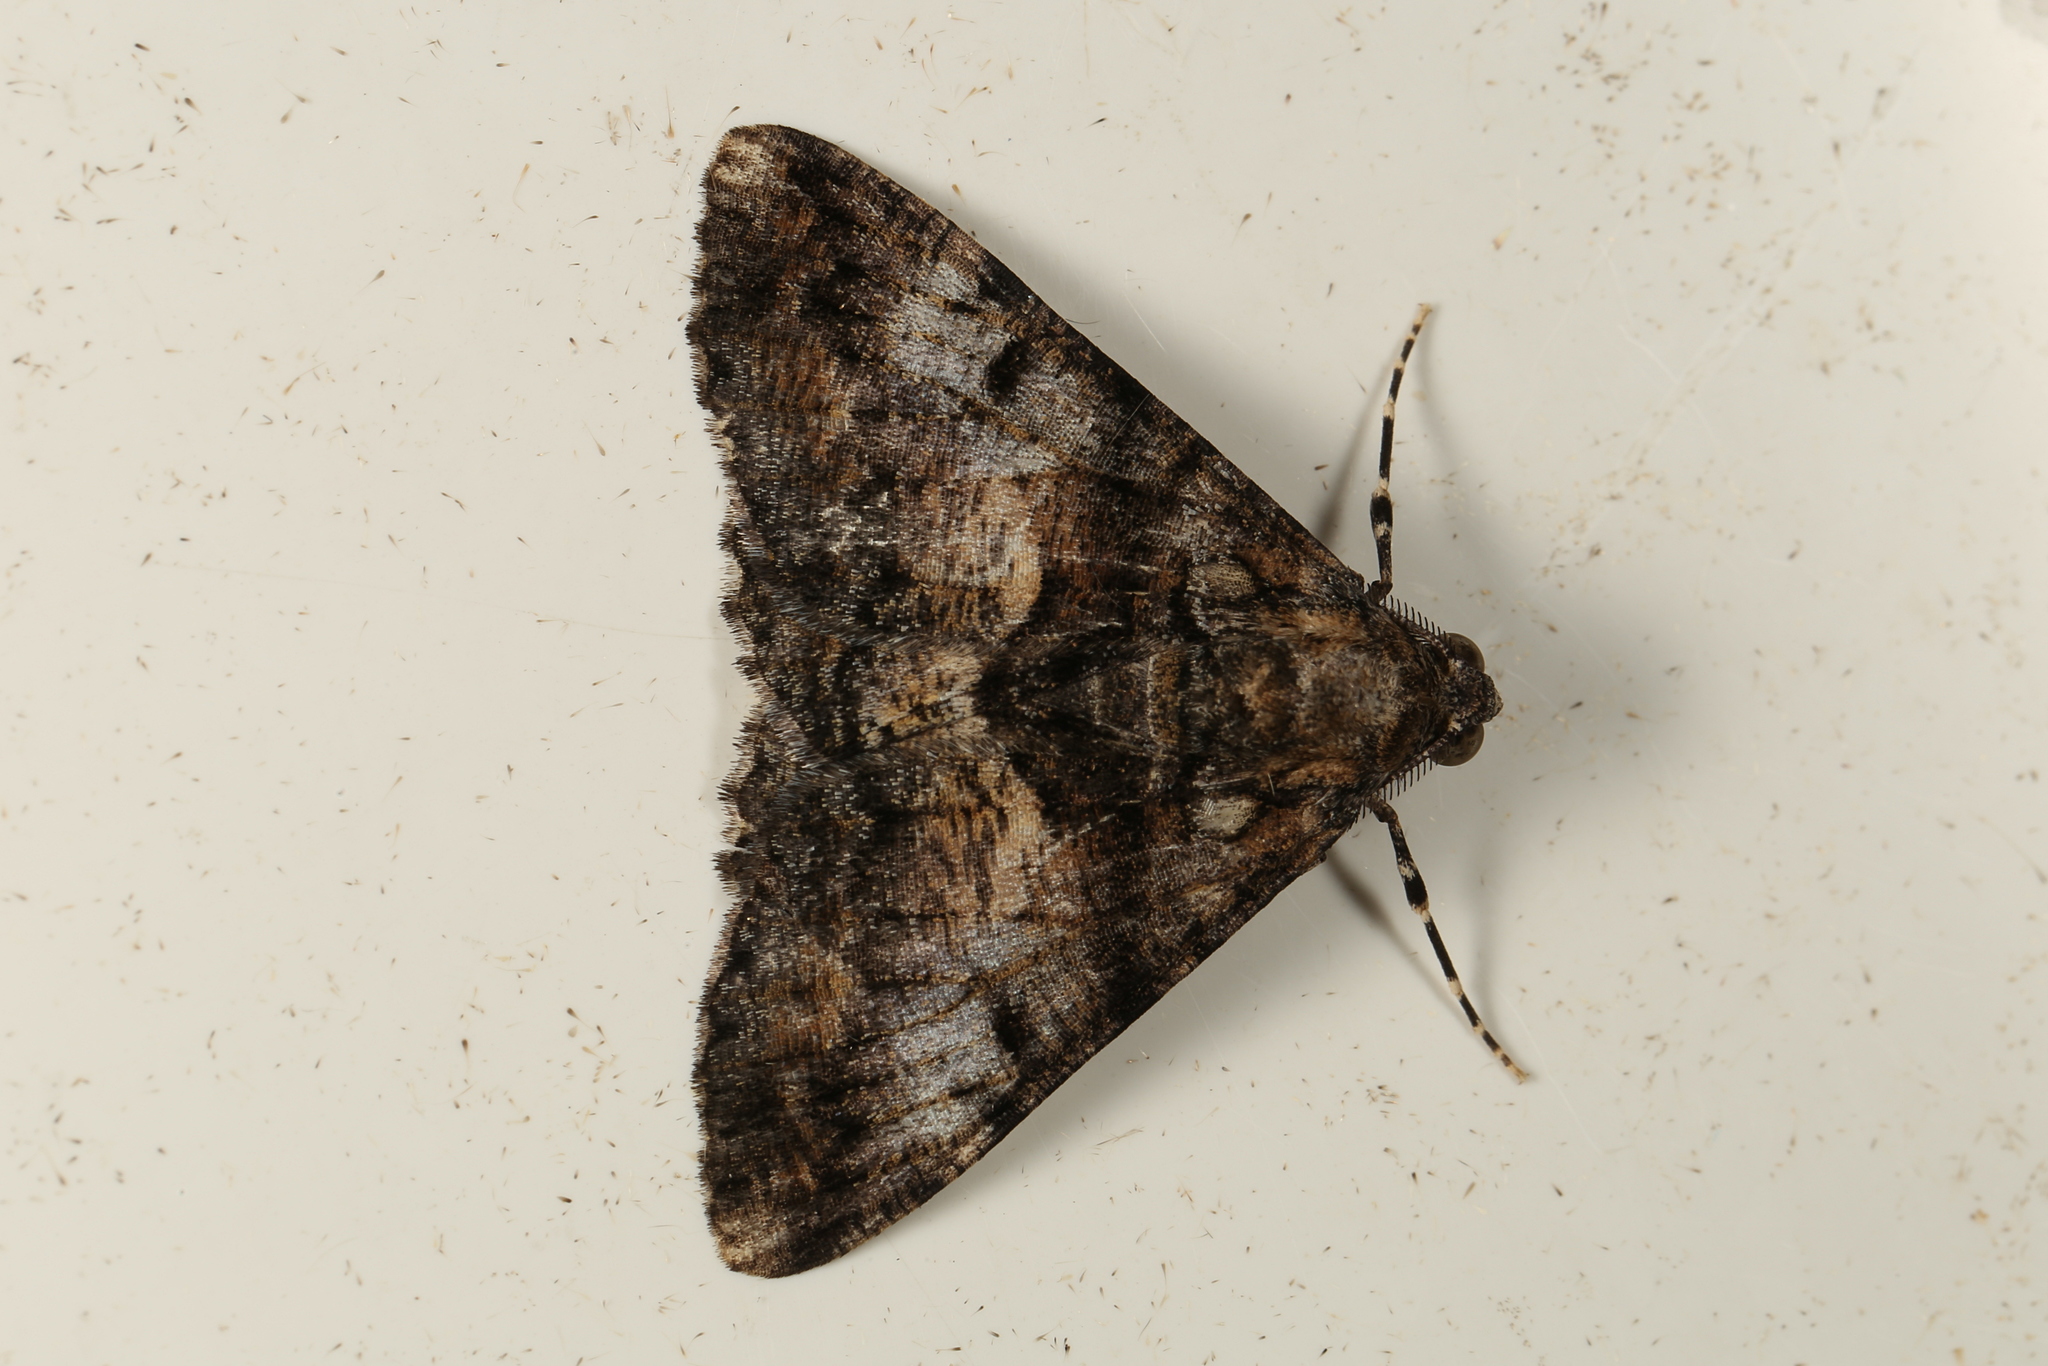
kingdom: Animalia
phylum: Arthropoda
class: Insecta
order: Lepidoptera
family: Geometridae
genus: Gastrinodes
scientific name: Gastrinodes argoplaca
